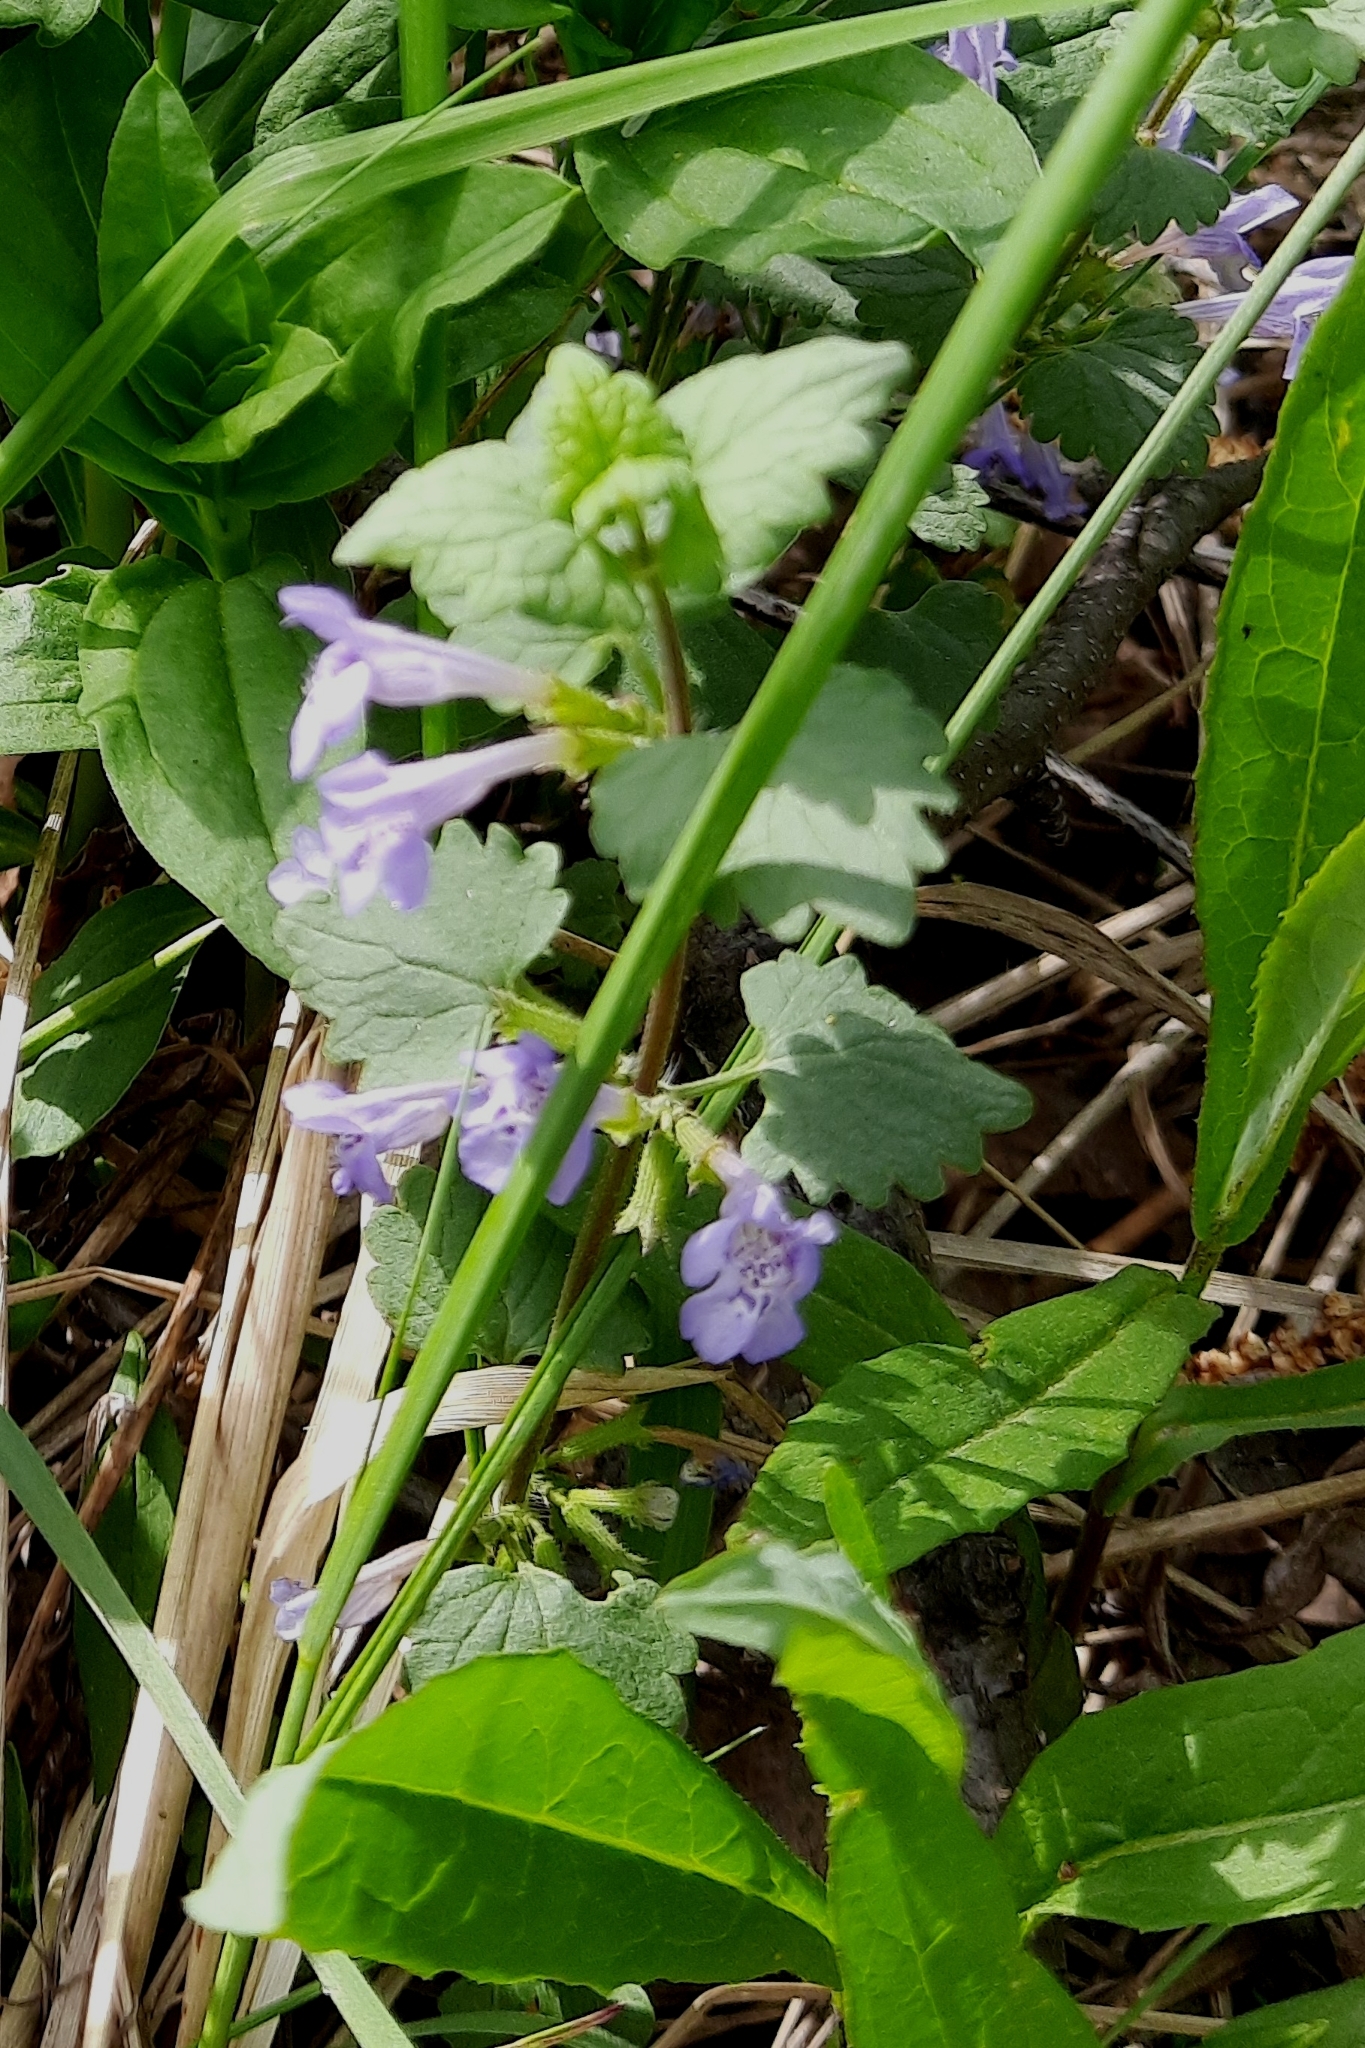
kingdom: Plantae
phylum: Tracheophyta
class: Magnoliopsida
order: Lamiales
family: Lamiaceae
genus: Glechoma
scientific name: Glechoma hederacea
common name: Ground ivy
